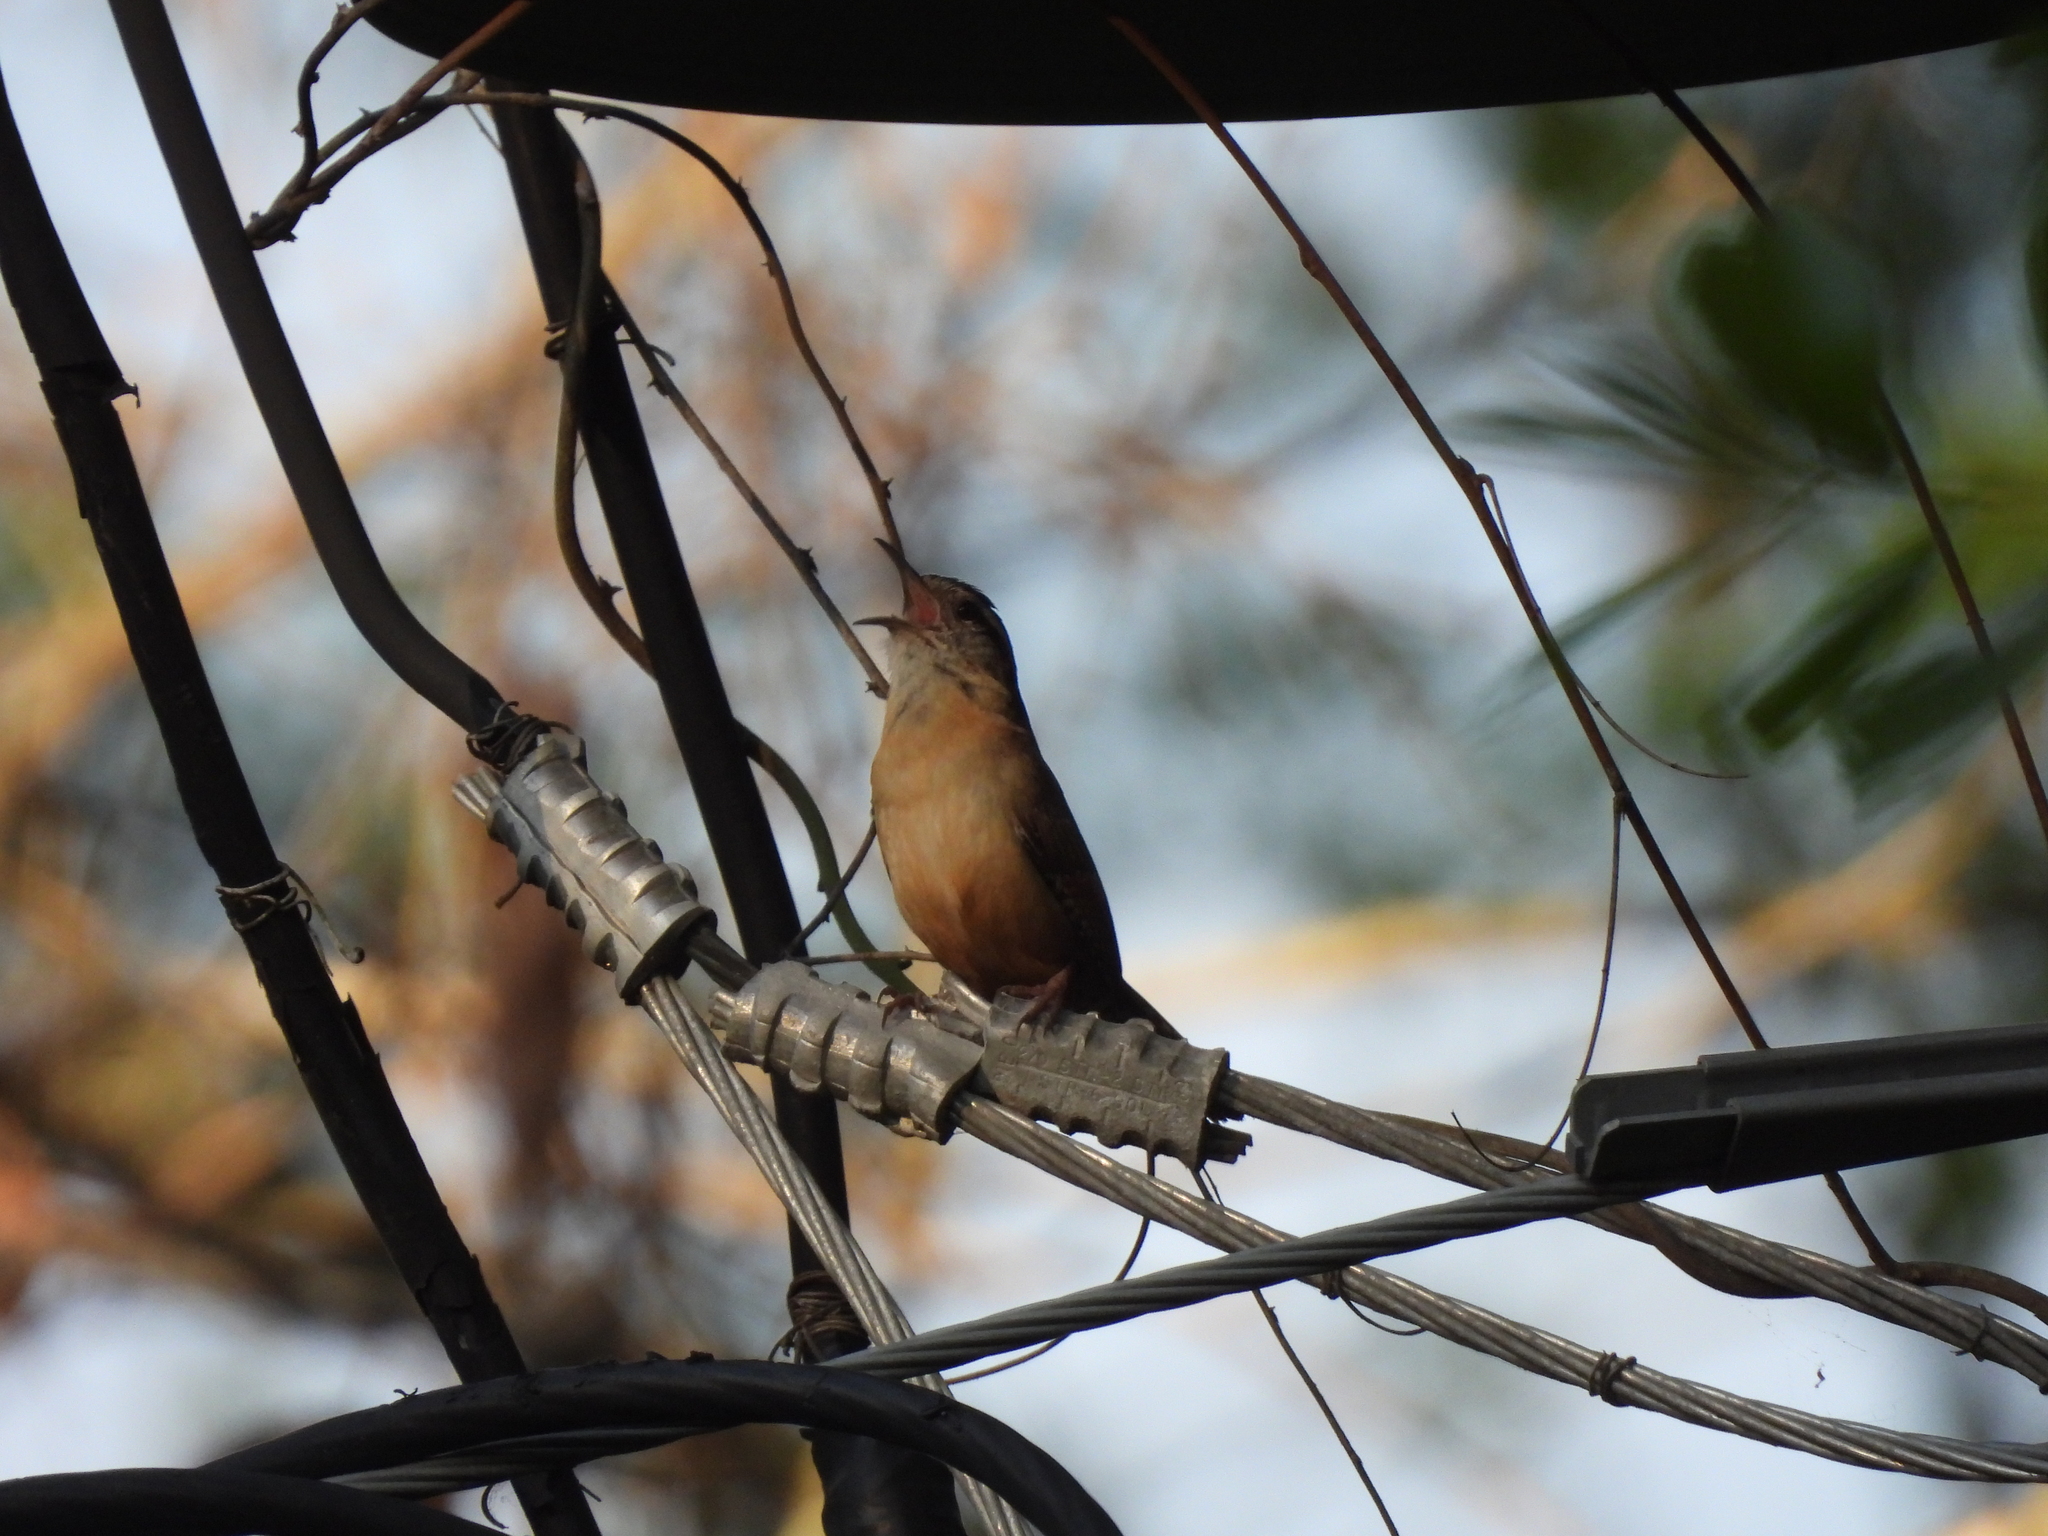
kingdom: Animalia
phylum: Chordata
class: Aves
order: Passeriformes
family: Troglodytidae
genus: Thryothorus
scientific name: Thryothorus ludovicianus
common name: Carolina wren
